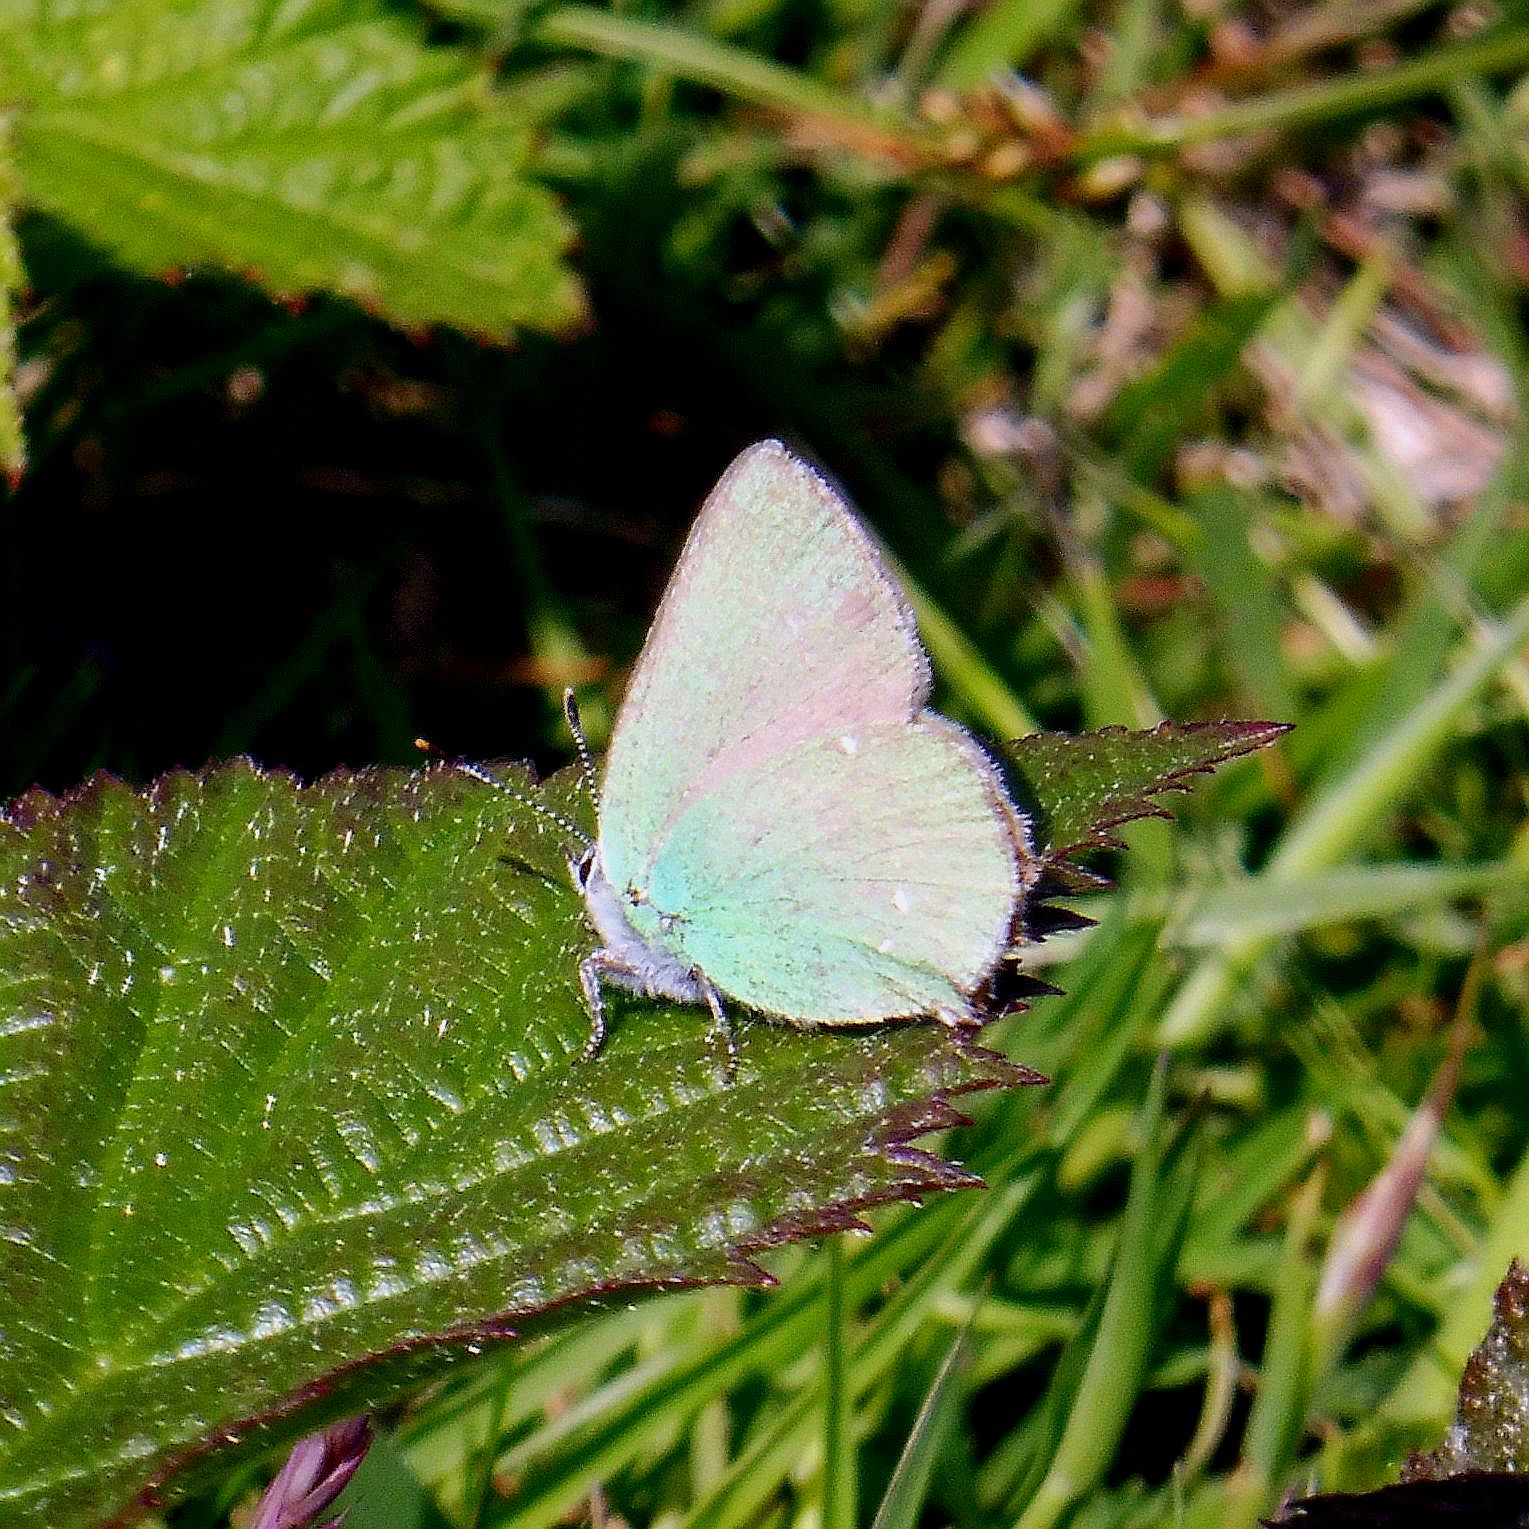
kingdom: Animalia
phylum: Arthropoda
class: Insecta
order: Lepidoptera
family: Lycaenidae
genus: Callophrys
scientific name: Callophrys rubi
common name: Green hairstreak
